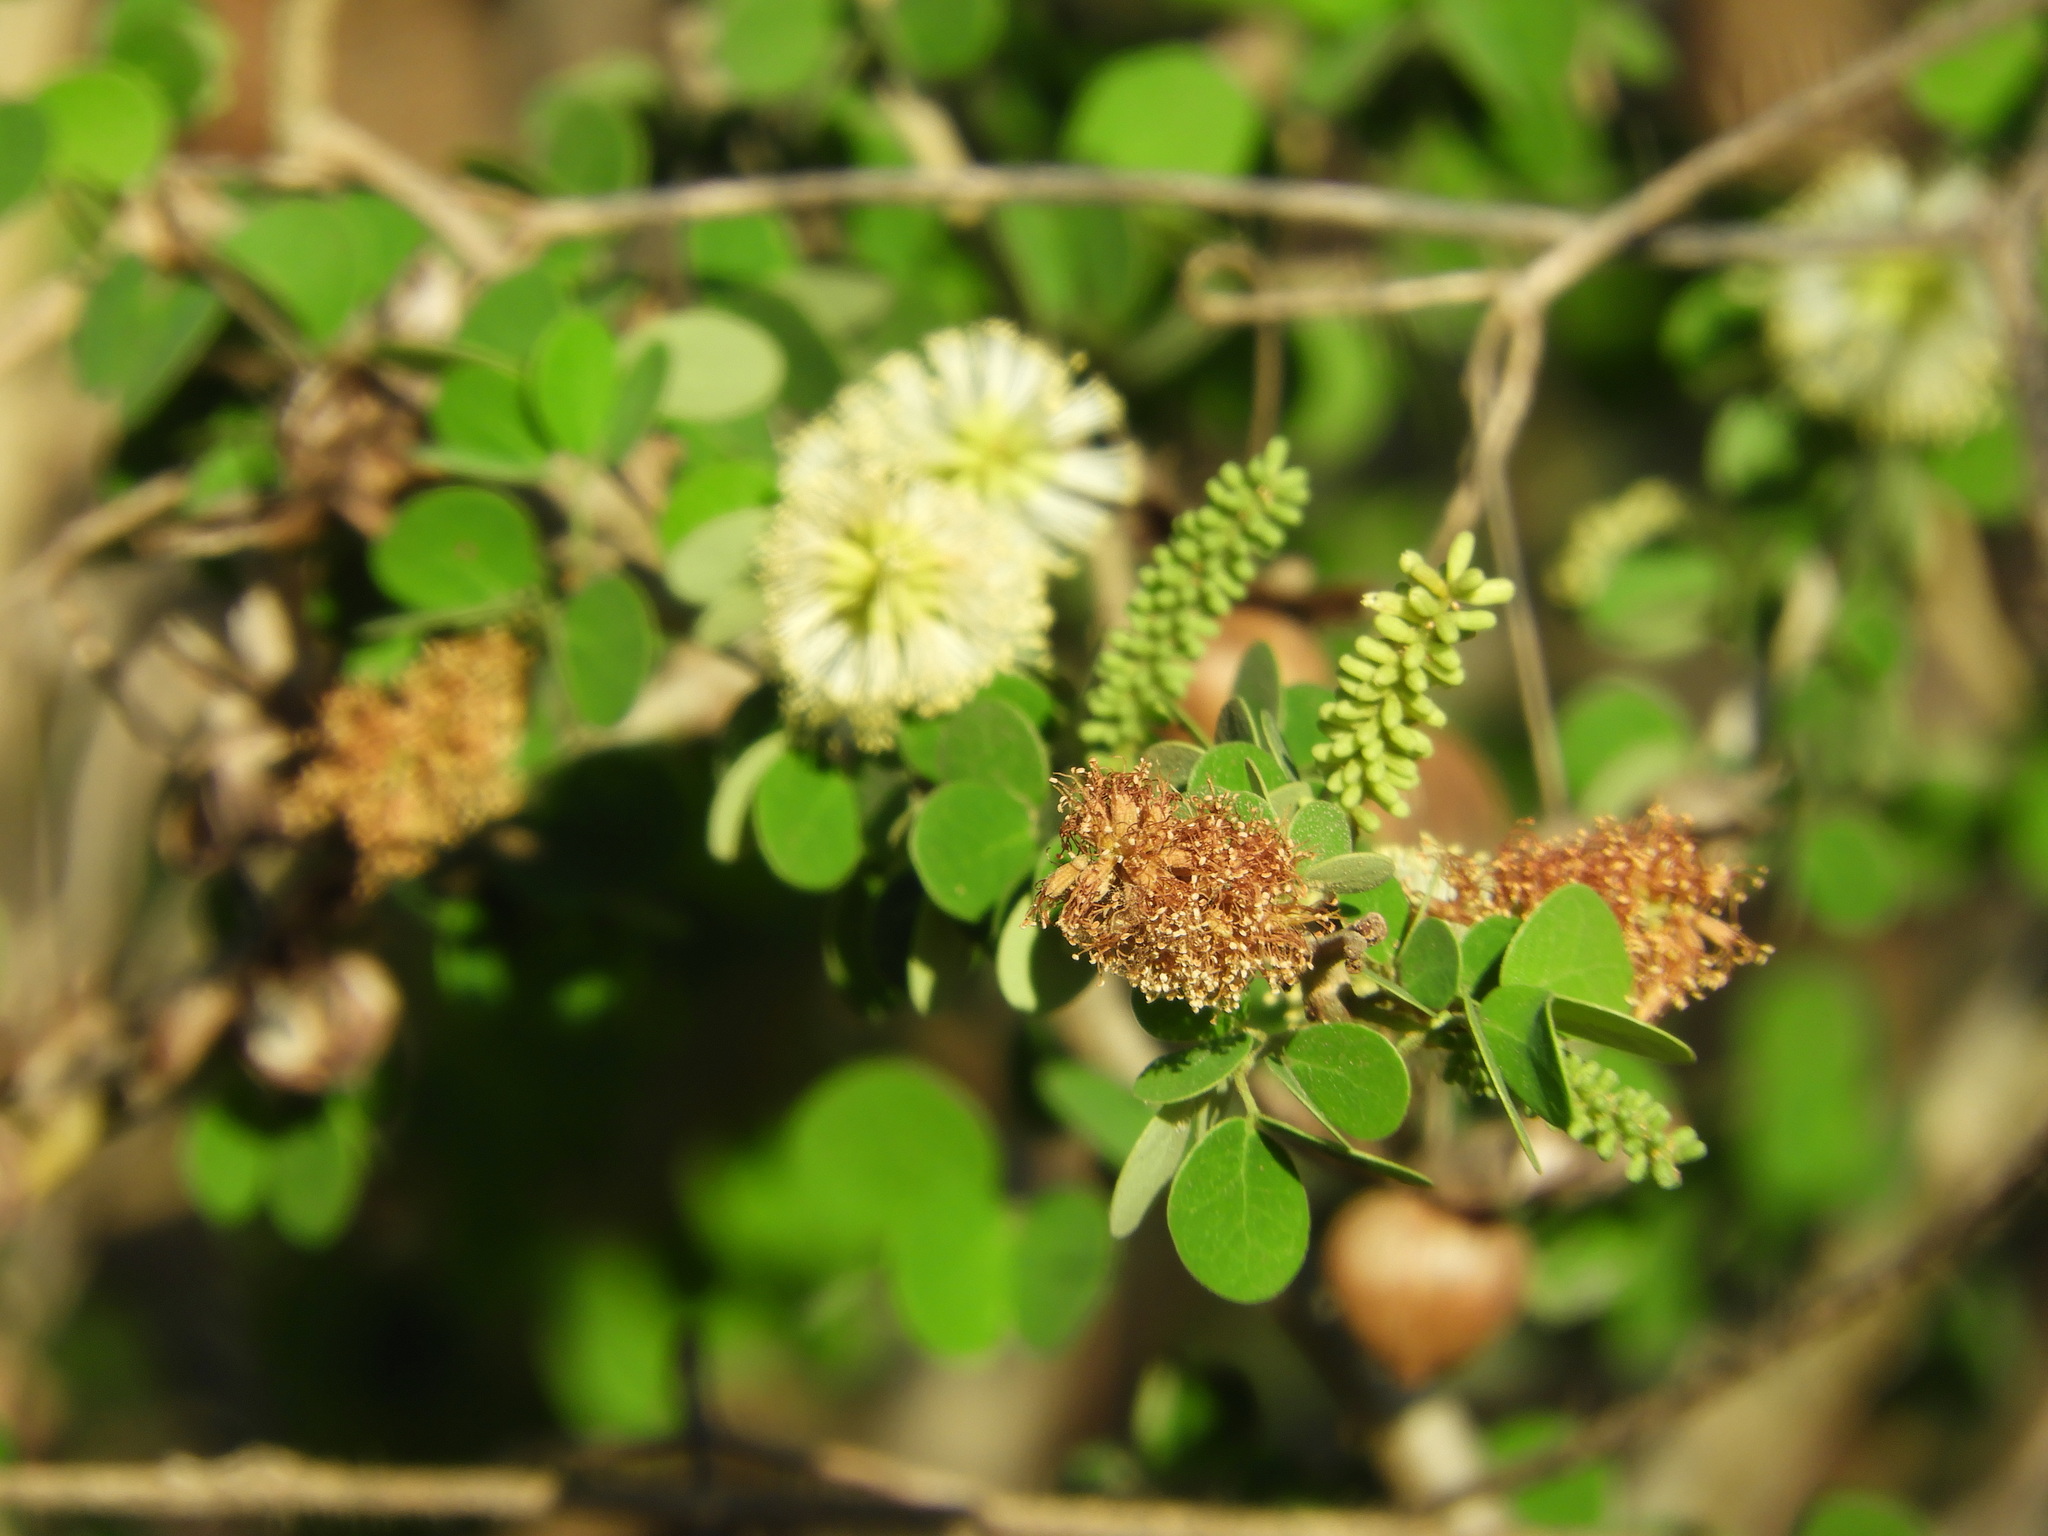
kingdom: Plantae
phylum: Tracheophyta
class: Magnoliopsida
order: Fabales
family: Fabaceae
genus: Microlobius
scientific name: Microlobius foetidus
